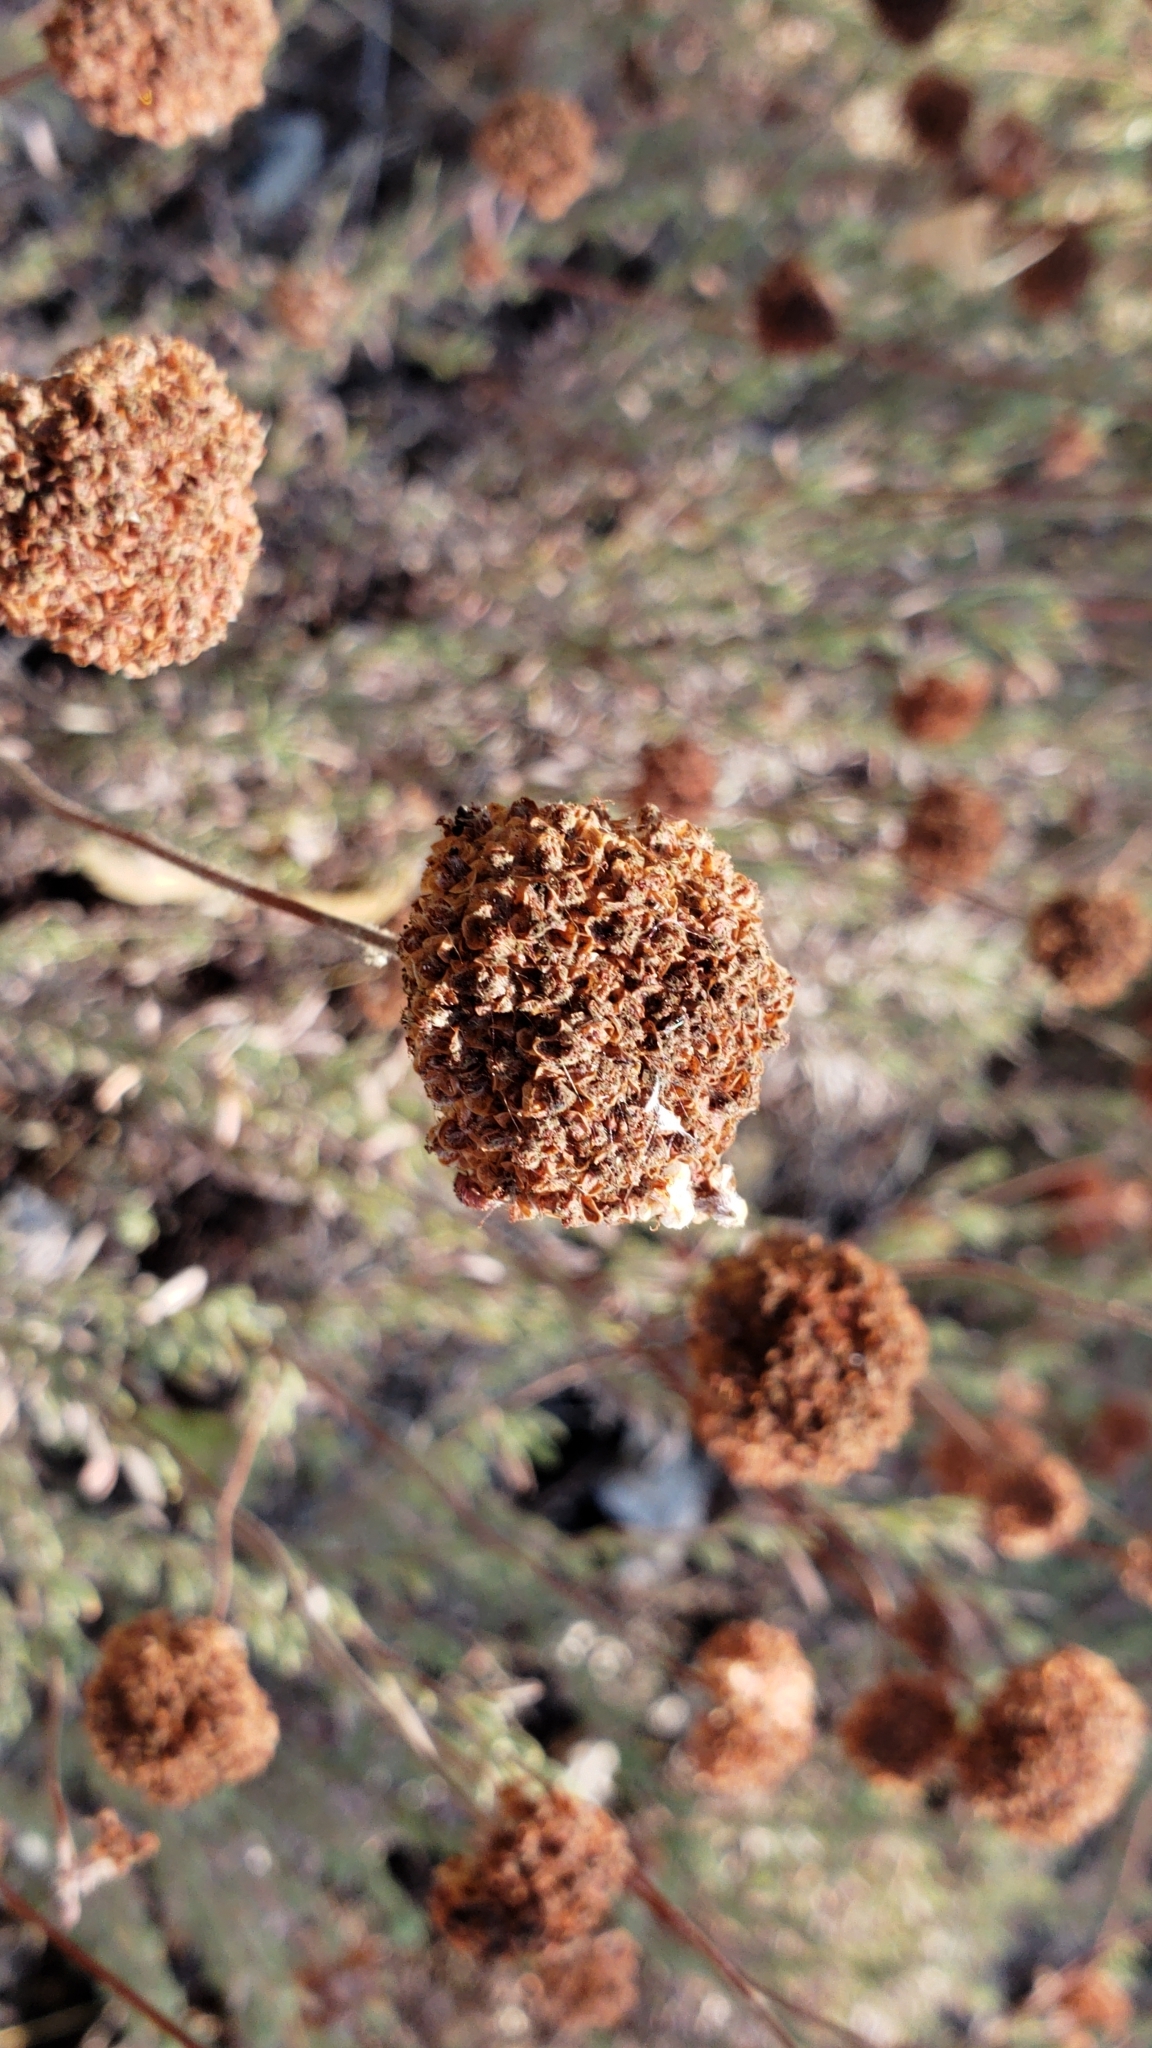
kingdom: Plantae
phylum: Tracheophyta
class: Magnoliopsida
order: Caryophyllales
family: Polygonaceae
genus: Eriogonum
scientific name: Eriogonum fasciculatum
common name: California wild buckwheat
